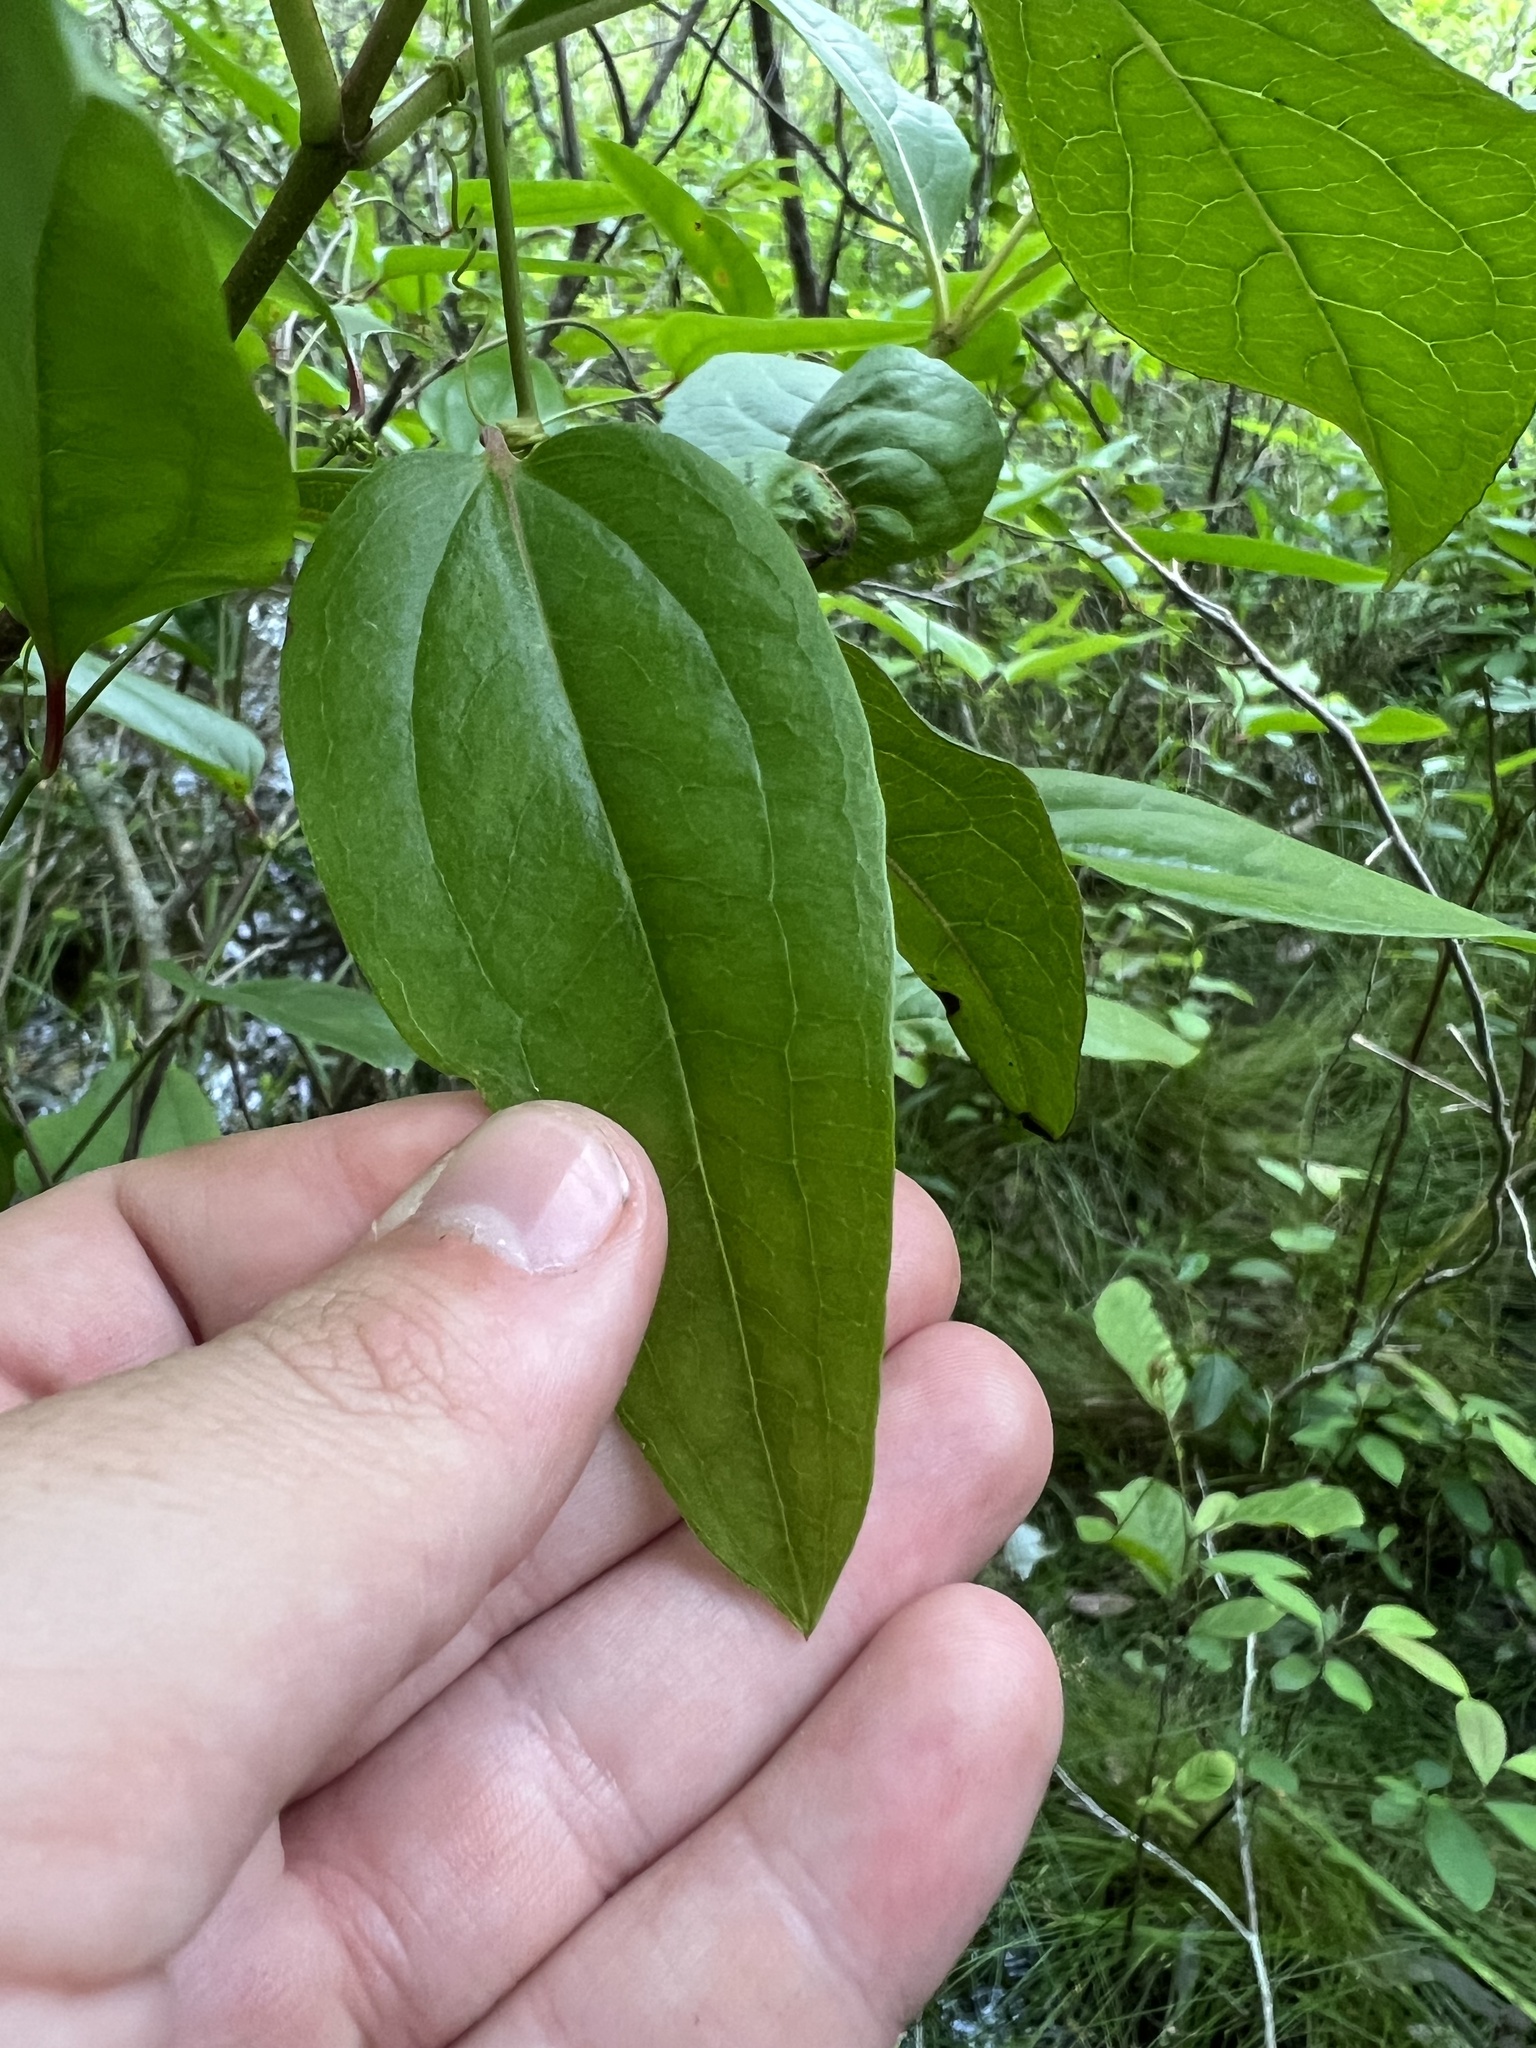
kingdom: Plantae
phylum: Tracheophyta
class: Liliopsida
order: Liliales
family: Smilacaceae
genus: Smilax
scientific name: Smilax walteri
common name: Coral greenbrier
